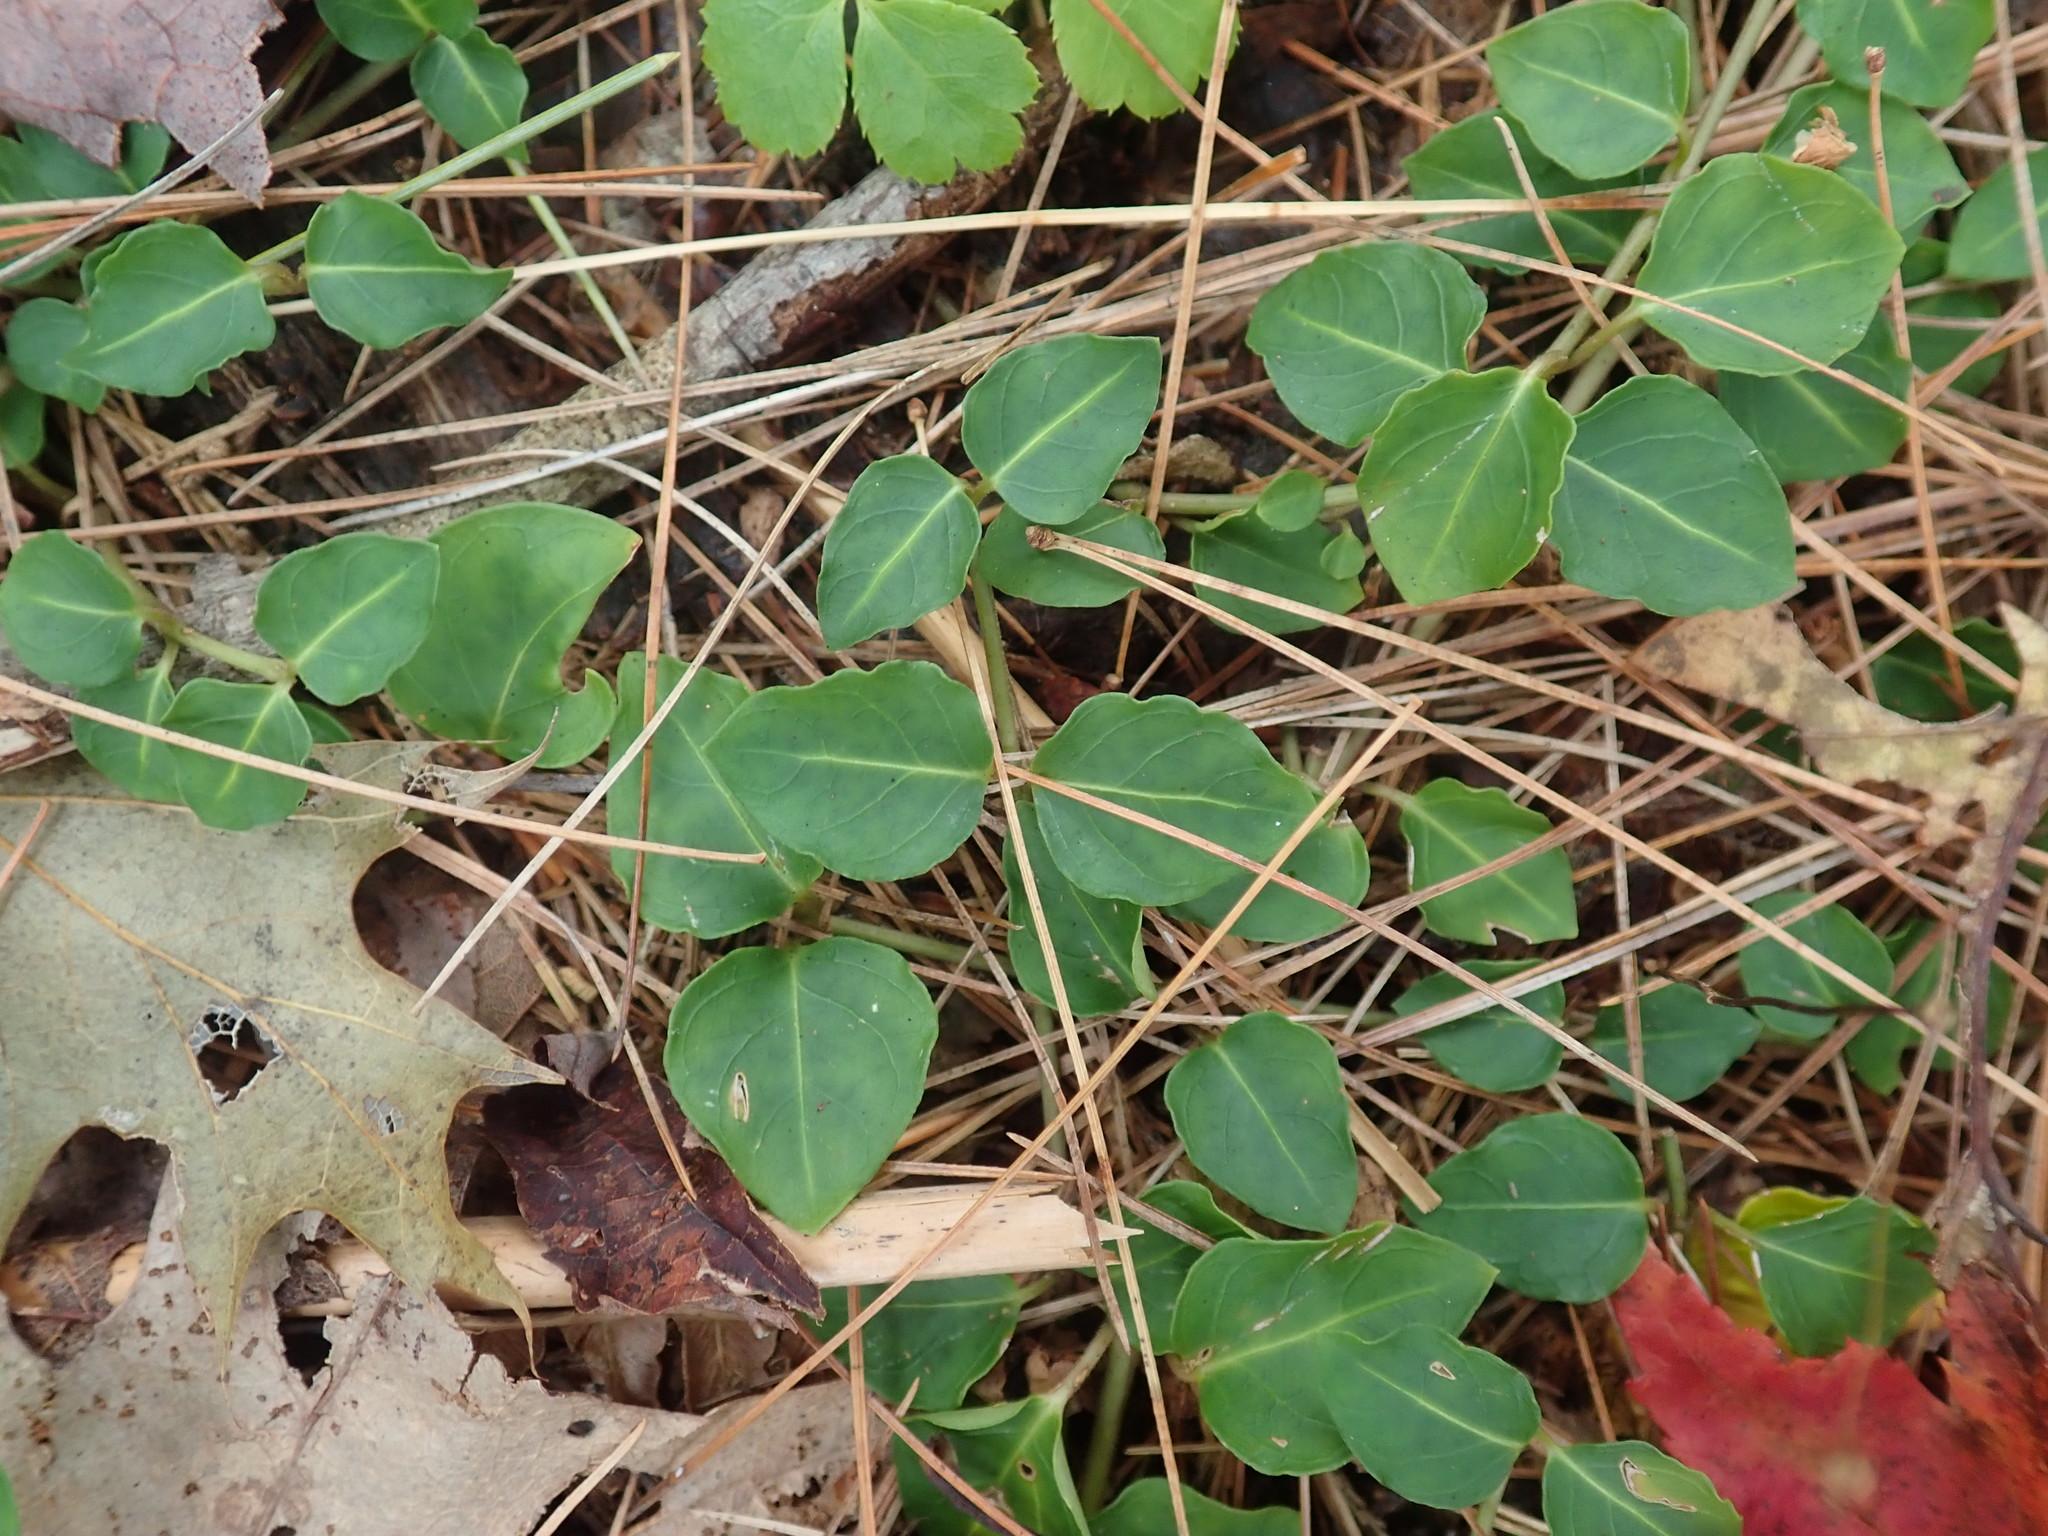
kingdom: Plantae
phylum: Tracheophyta
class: Magnoliopsida
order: Gentianales
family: Rubiaceae
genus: Mitchella
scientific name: Mitchella repens
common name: Partridge-berry
